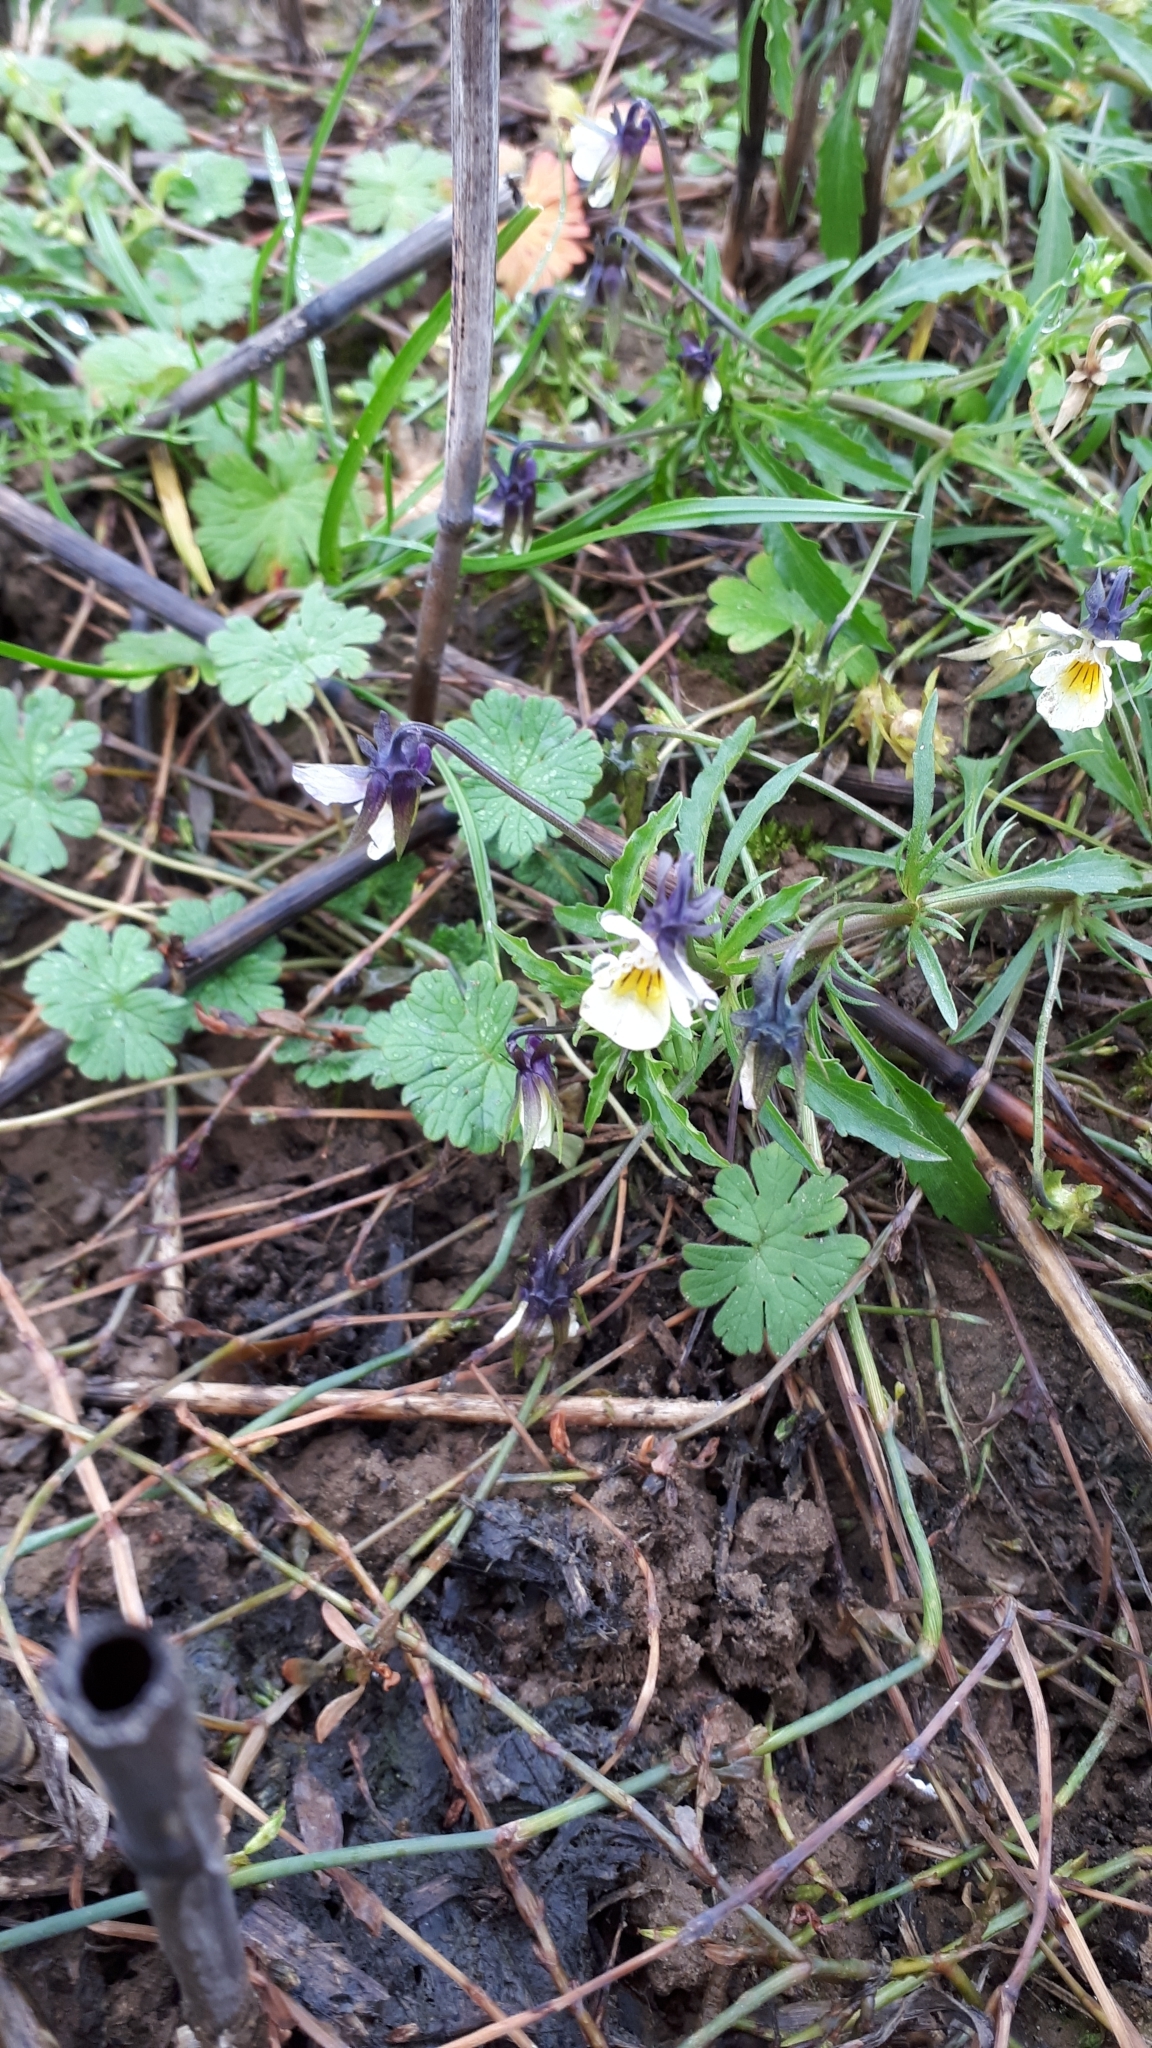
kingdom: Plantae
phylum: Tracheophyta
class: Magnoliopsida
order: Malpighiales
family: Violaceae
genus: Viola
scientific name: Viola arvensis
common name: Field pansy
